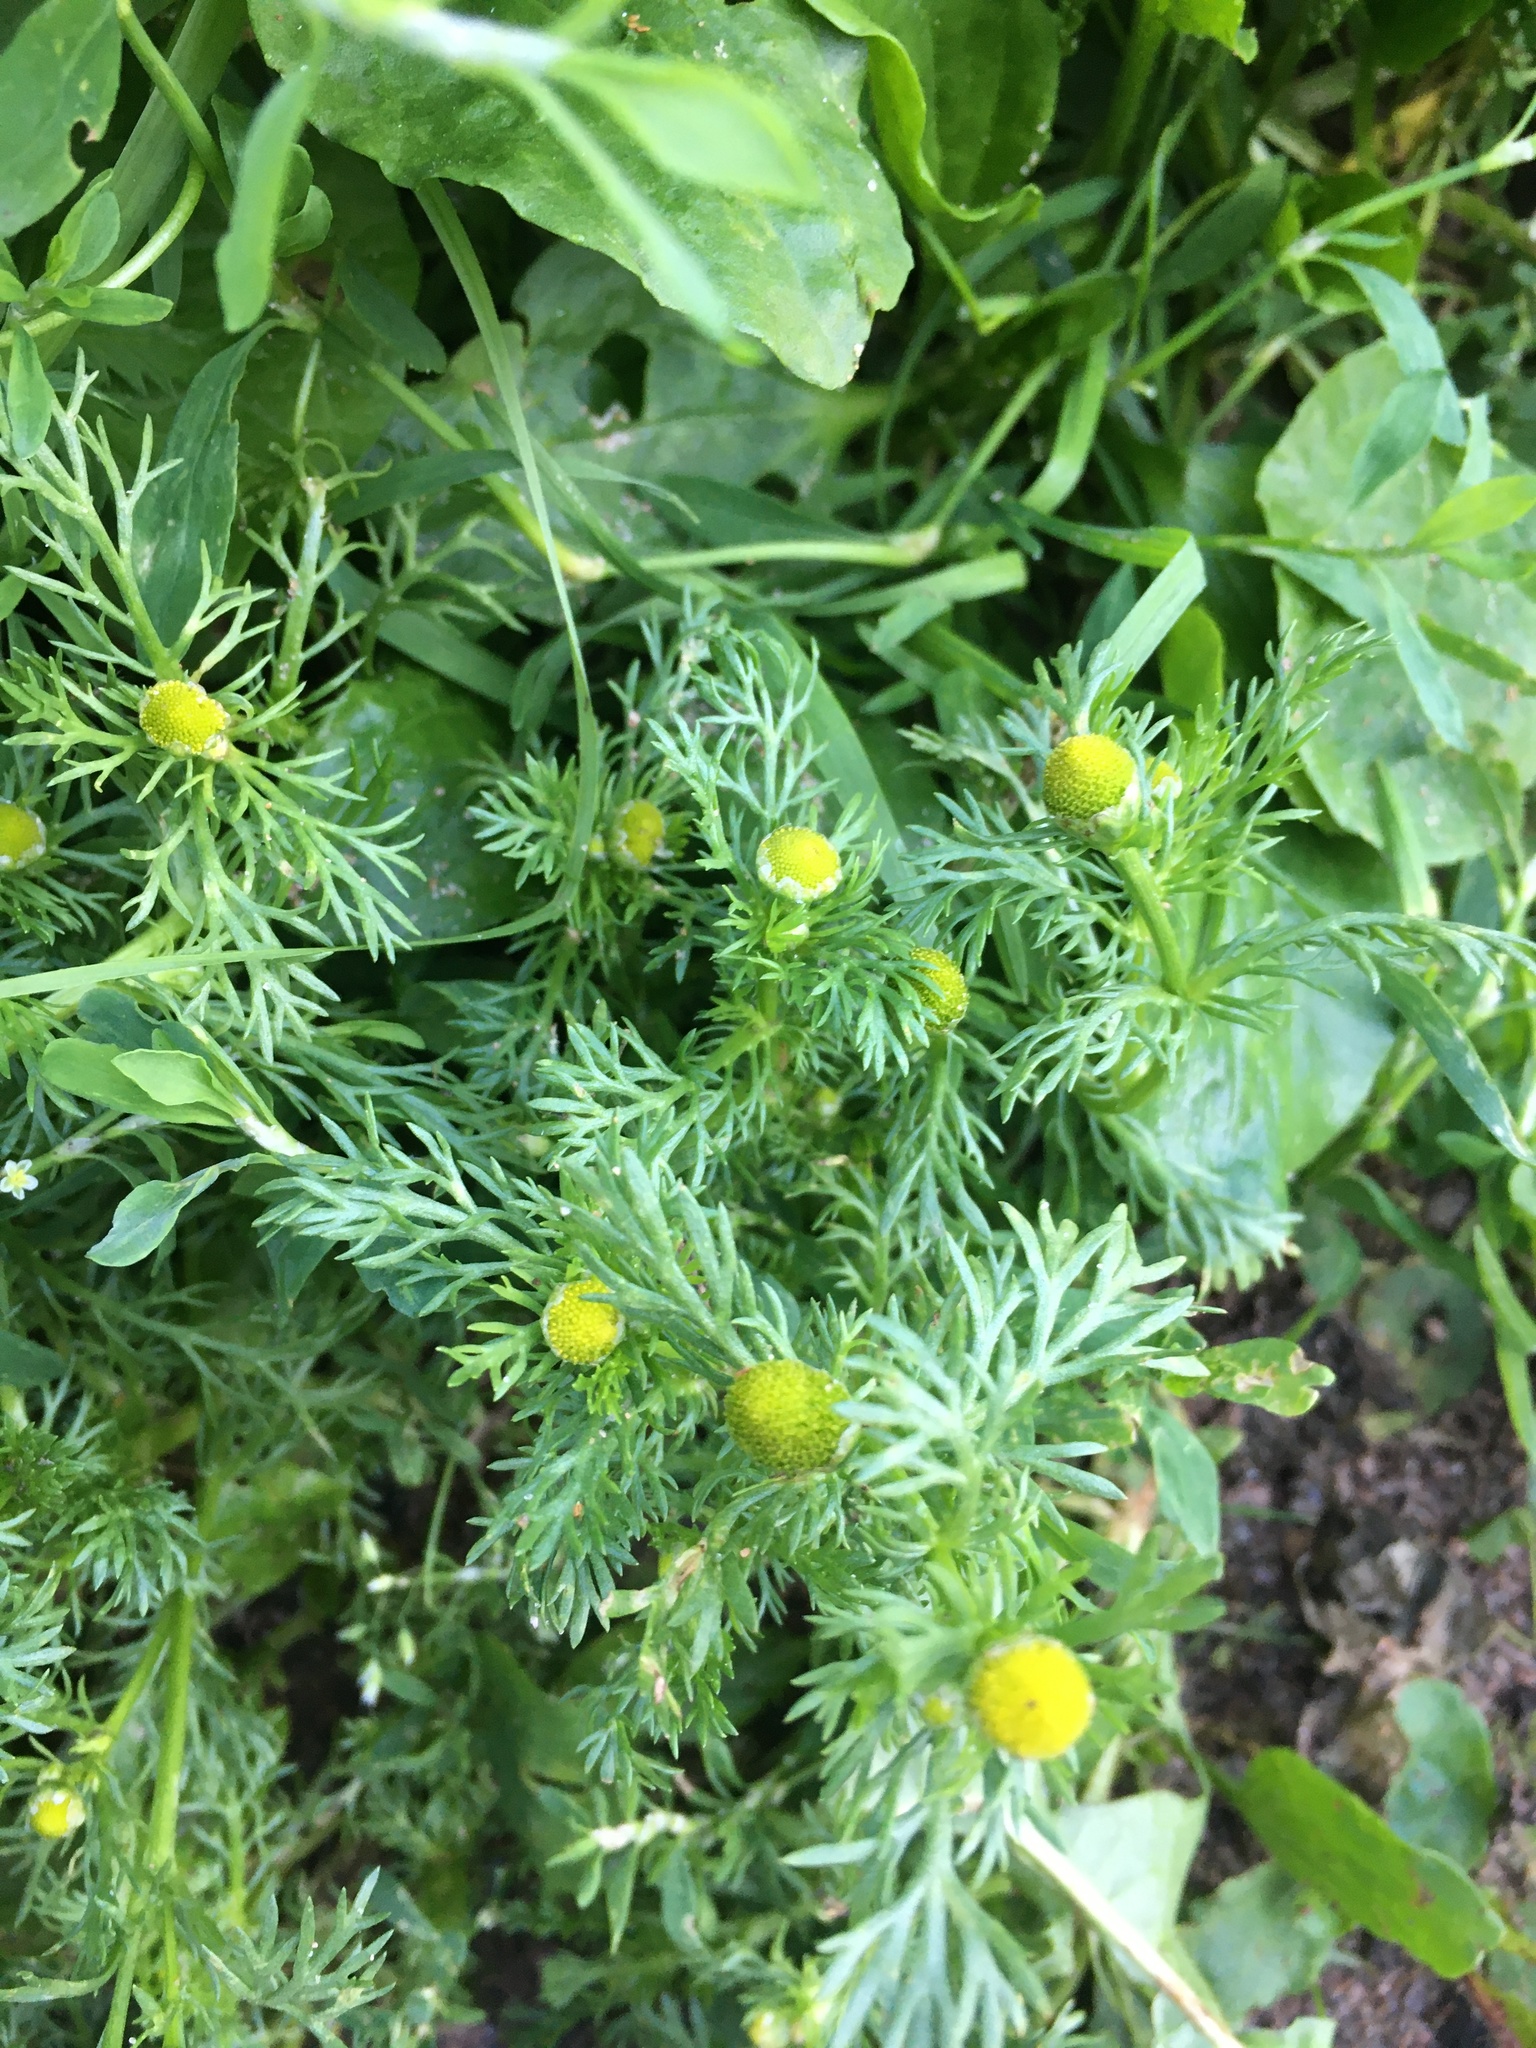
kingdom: Plantae
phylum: Tracheophyta
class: Magnoliopsida
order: Asterales
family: Asteraceae
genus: Matricaria
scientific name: Matricaria discoidea
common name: Disc mayweed
